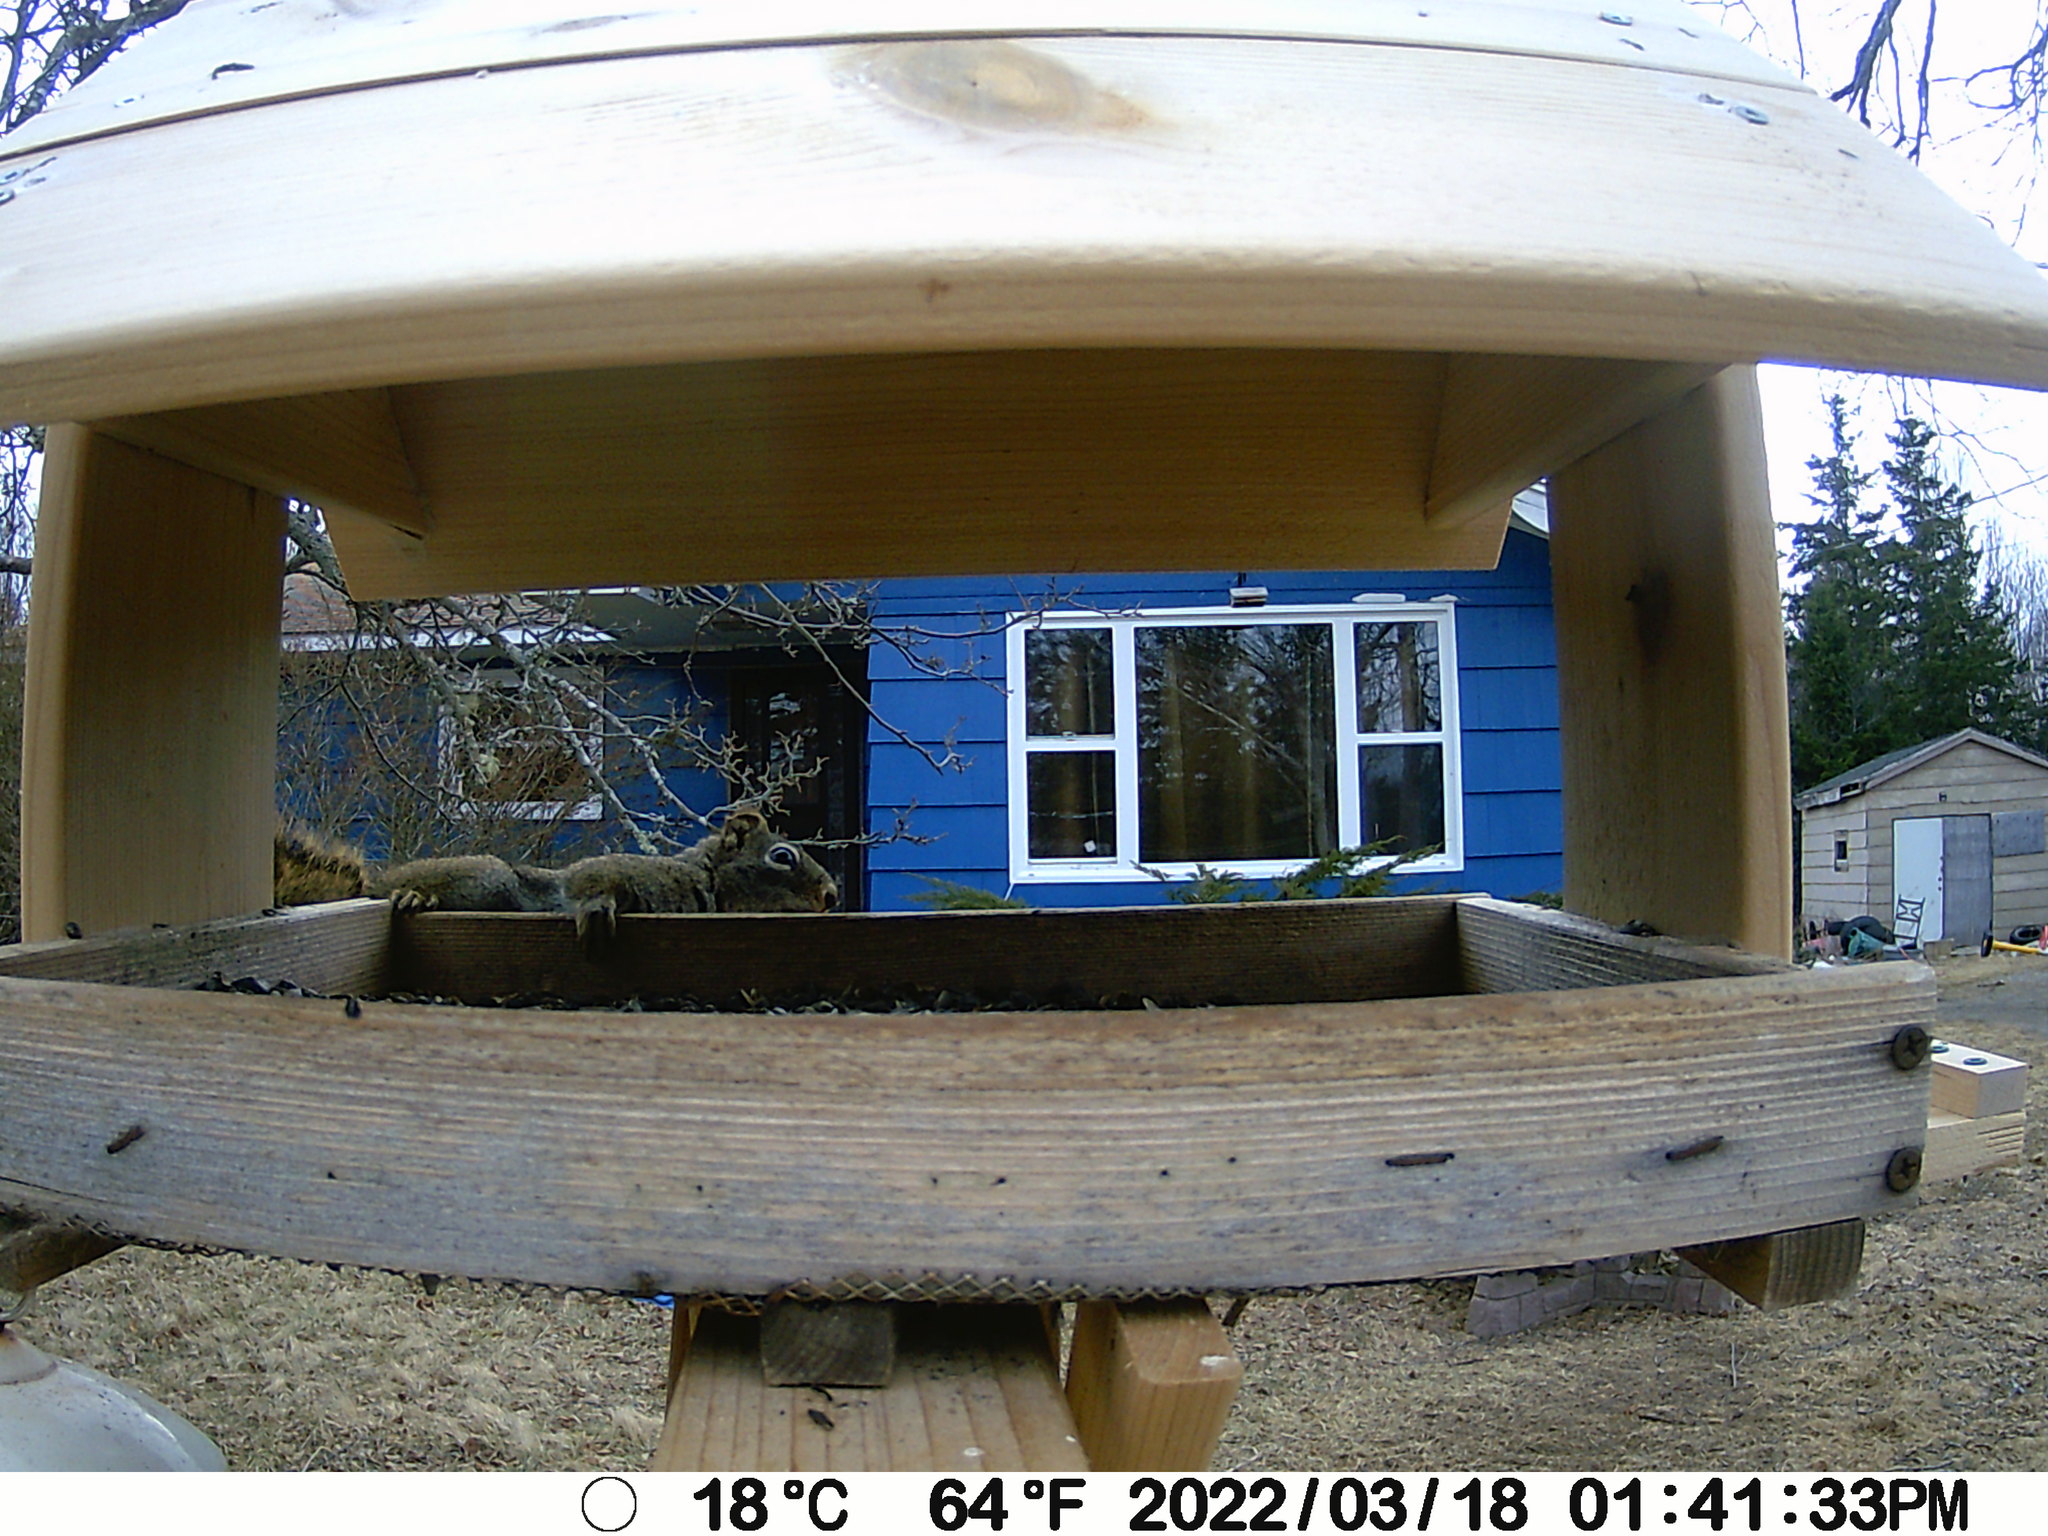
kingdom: Animalia
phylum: Chordata
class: Mammalia
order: Rodentia
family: Sciuridae
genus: Tamiasciurus
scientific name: Tamiasciurus hudsonicus
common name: Red squirrel
